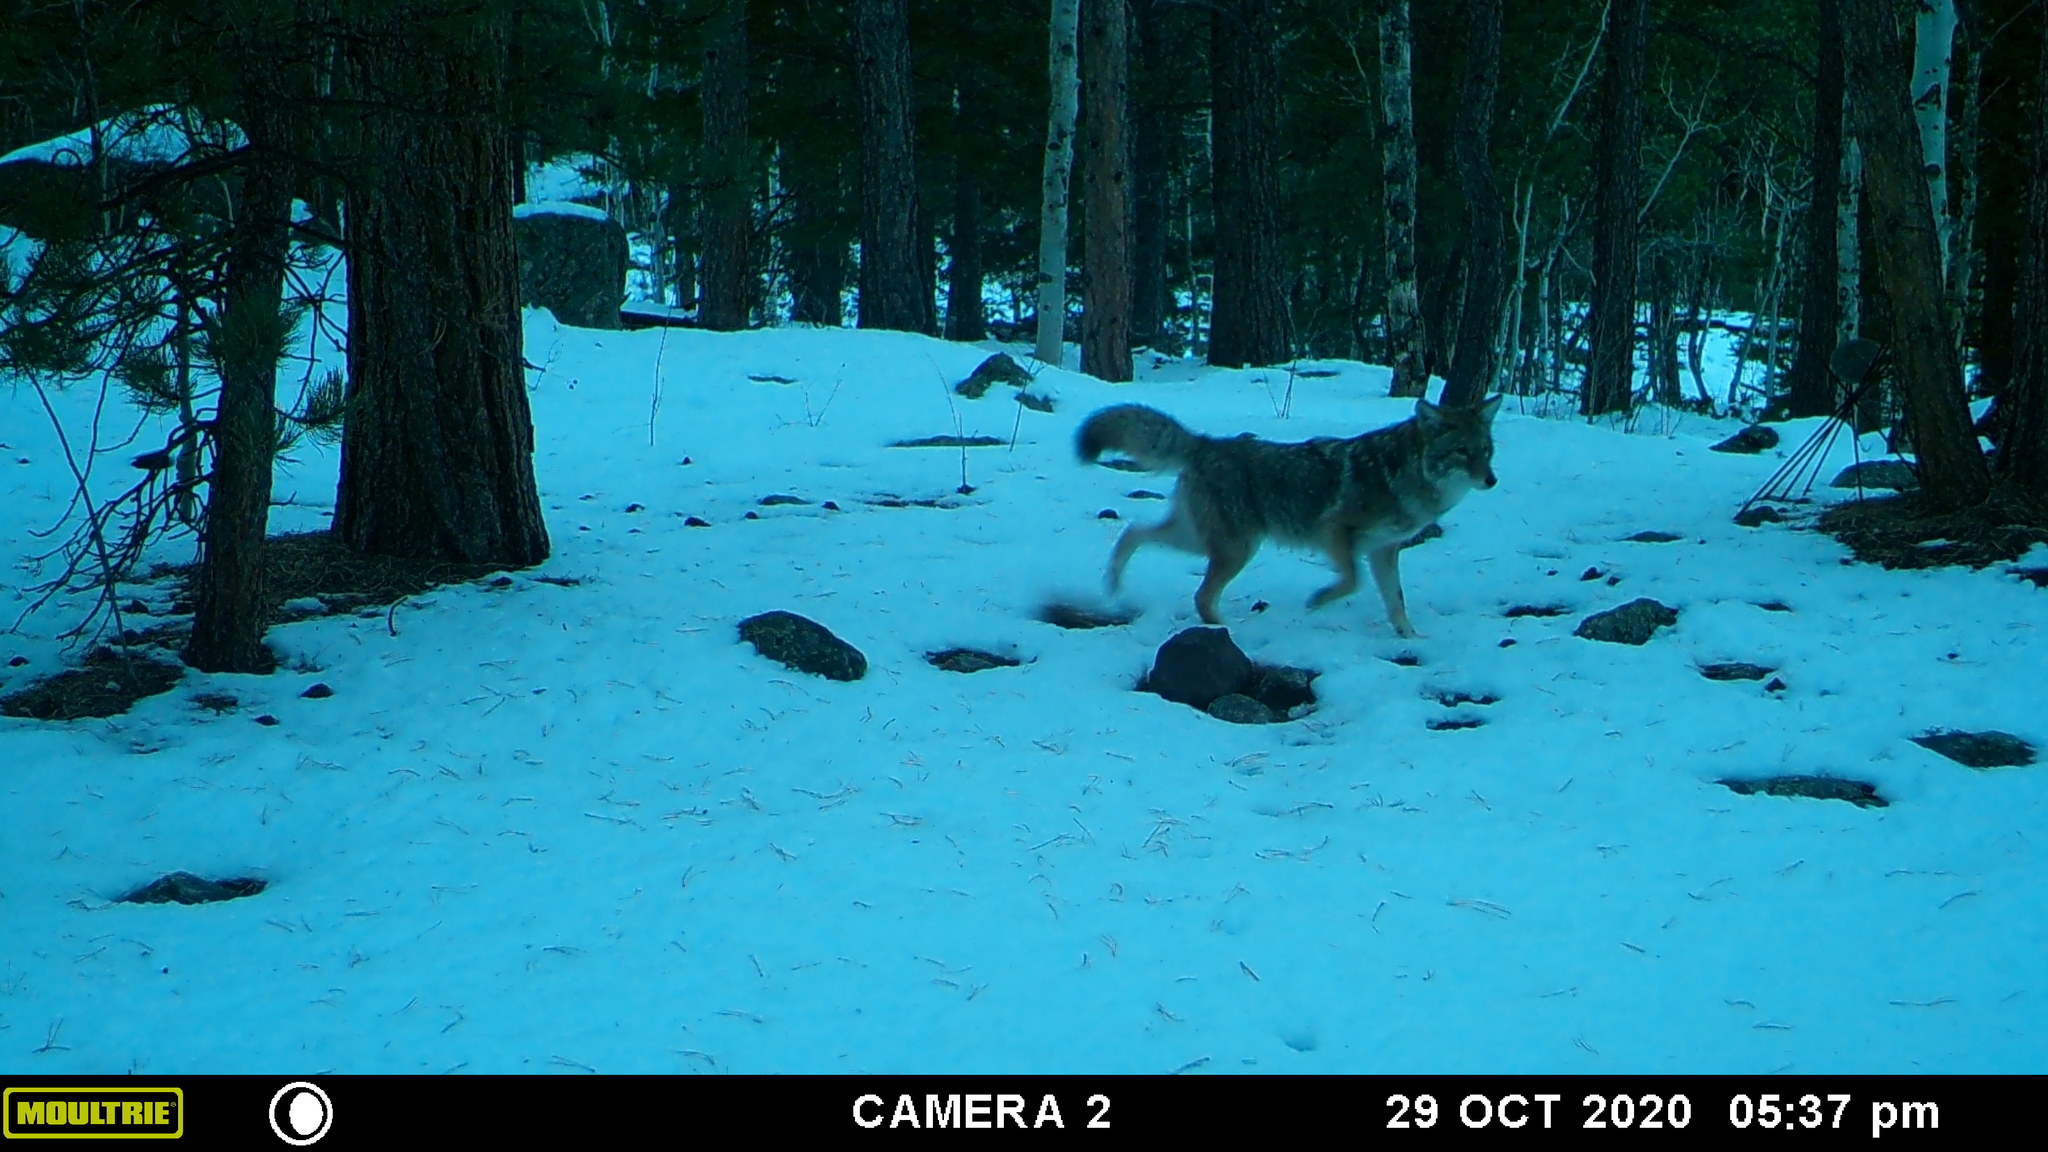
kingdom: Animalia
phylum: Chordata
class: Mammalia
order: Carnivora
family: Canidae
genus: Canis
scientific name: Canis latrans
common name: Coyote
